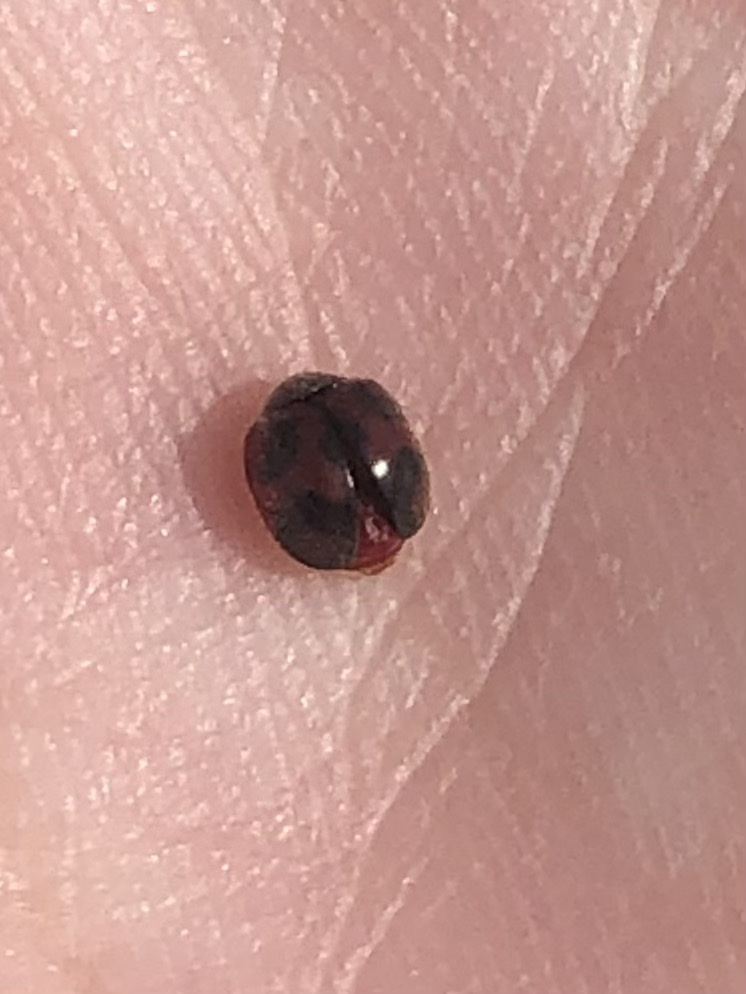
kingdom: Animalia
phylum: Arthropoda
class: Insecta
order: Coleoptera
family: Coccinellidae
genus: Novius
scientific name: Novius cardinalis
